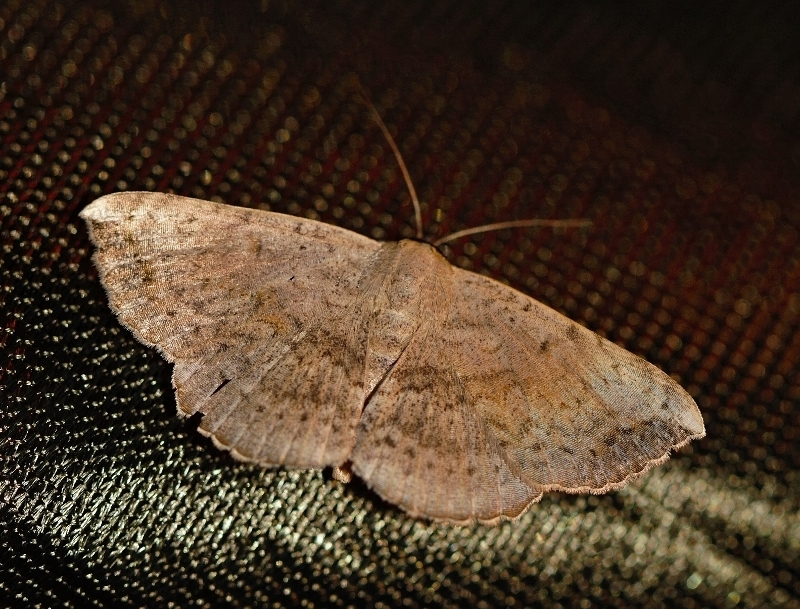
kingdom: Animalia
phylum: Arthropoda
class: Insecta
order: Lepidoptera
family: Erebidae
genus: Maxera
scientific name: Maxera marchalii
